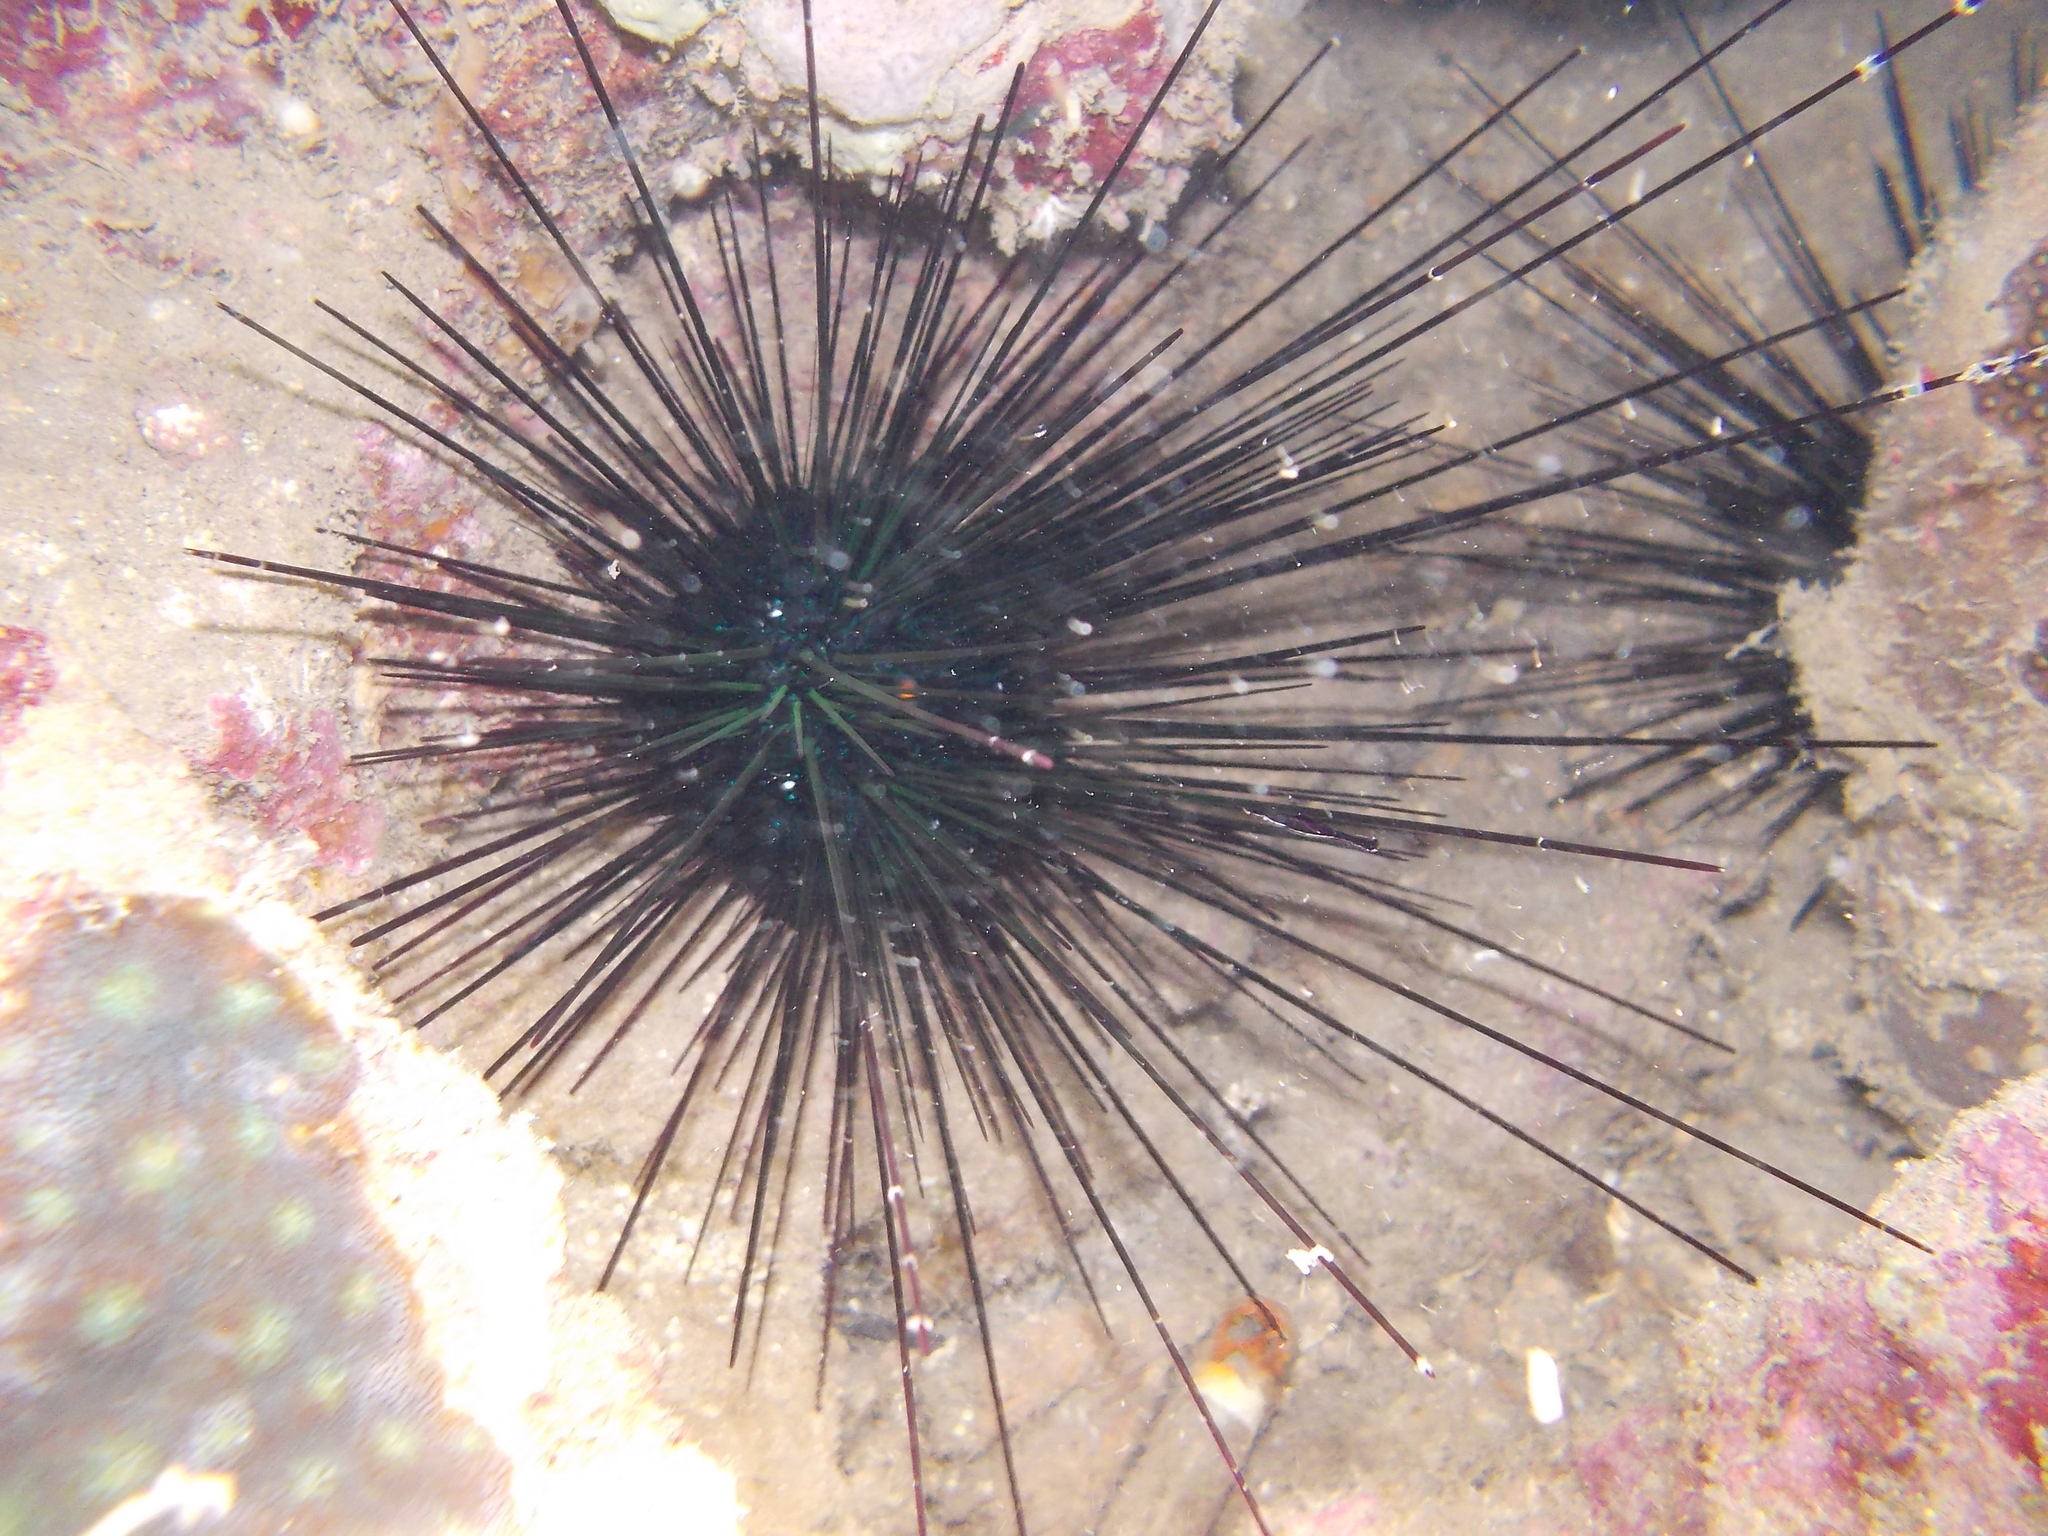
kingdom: Animalia
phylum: Echinodermata
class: Echinoidea
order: Diadematoida
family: Diadematidae
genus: Diadema
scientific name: Diadema setosum
